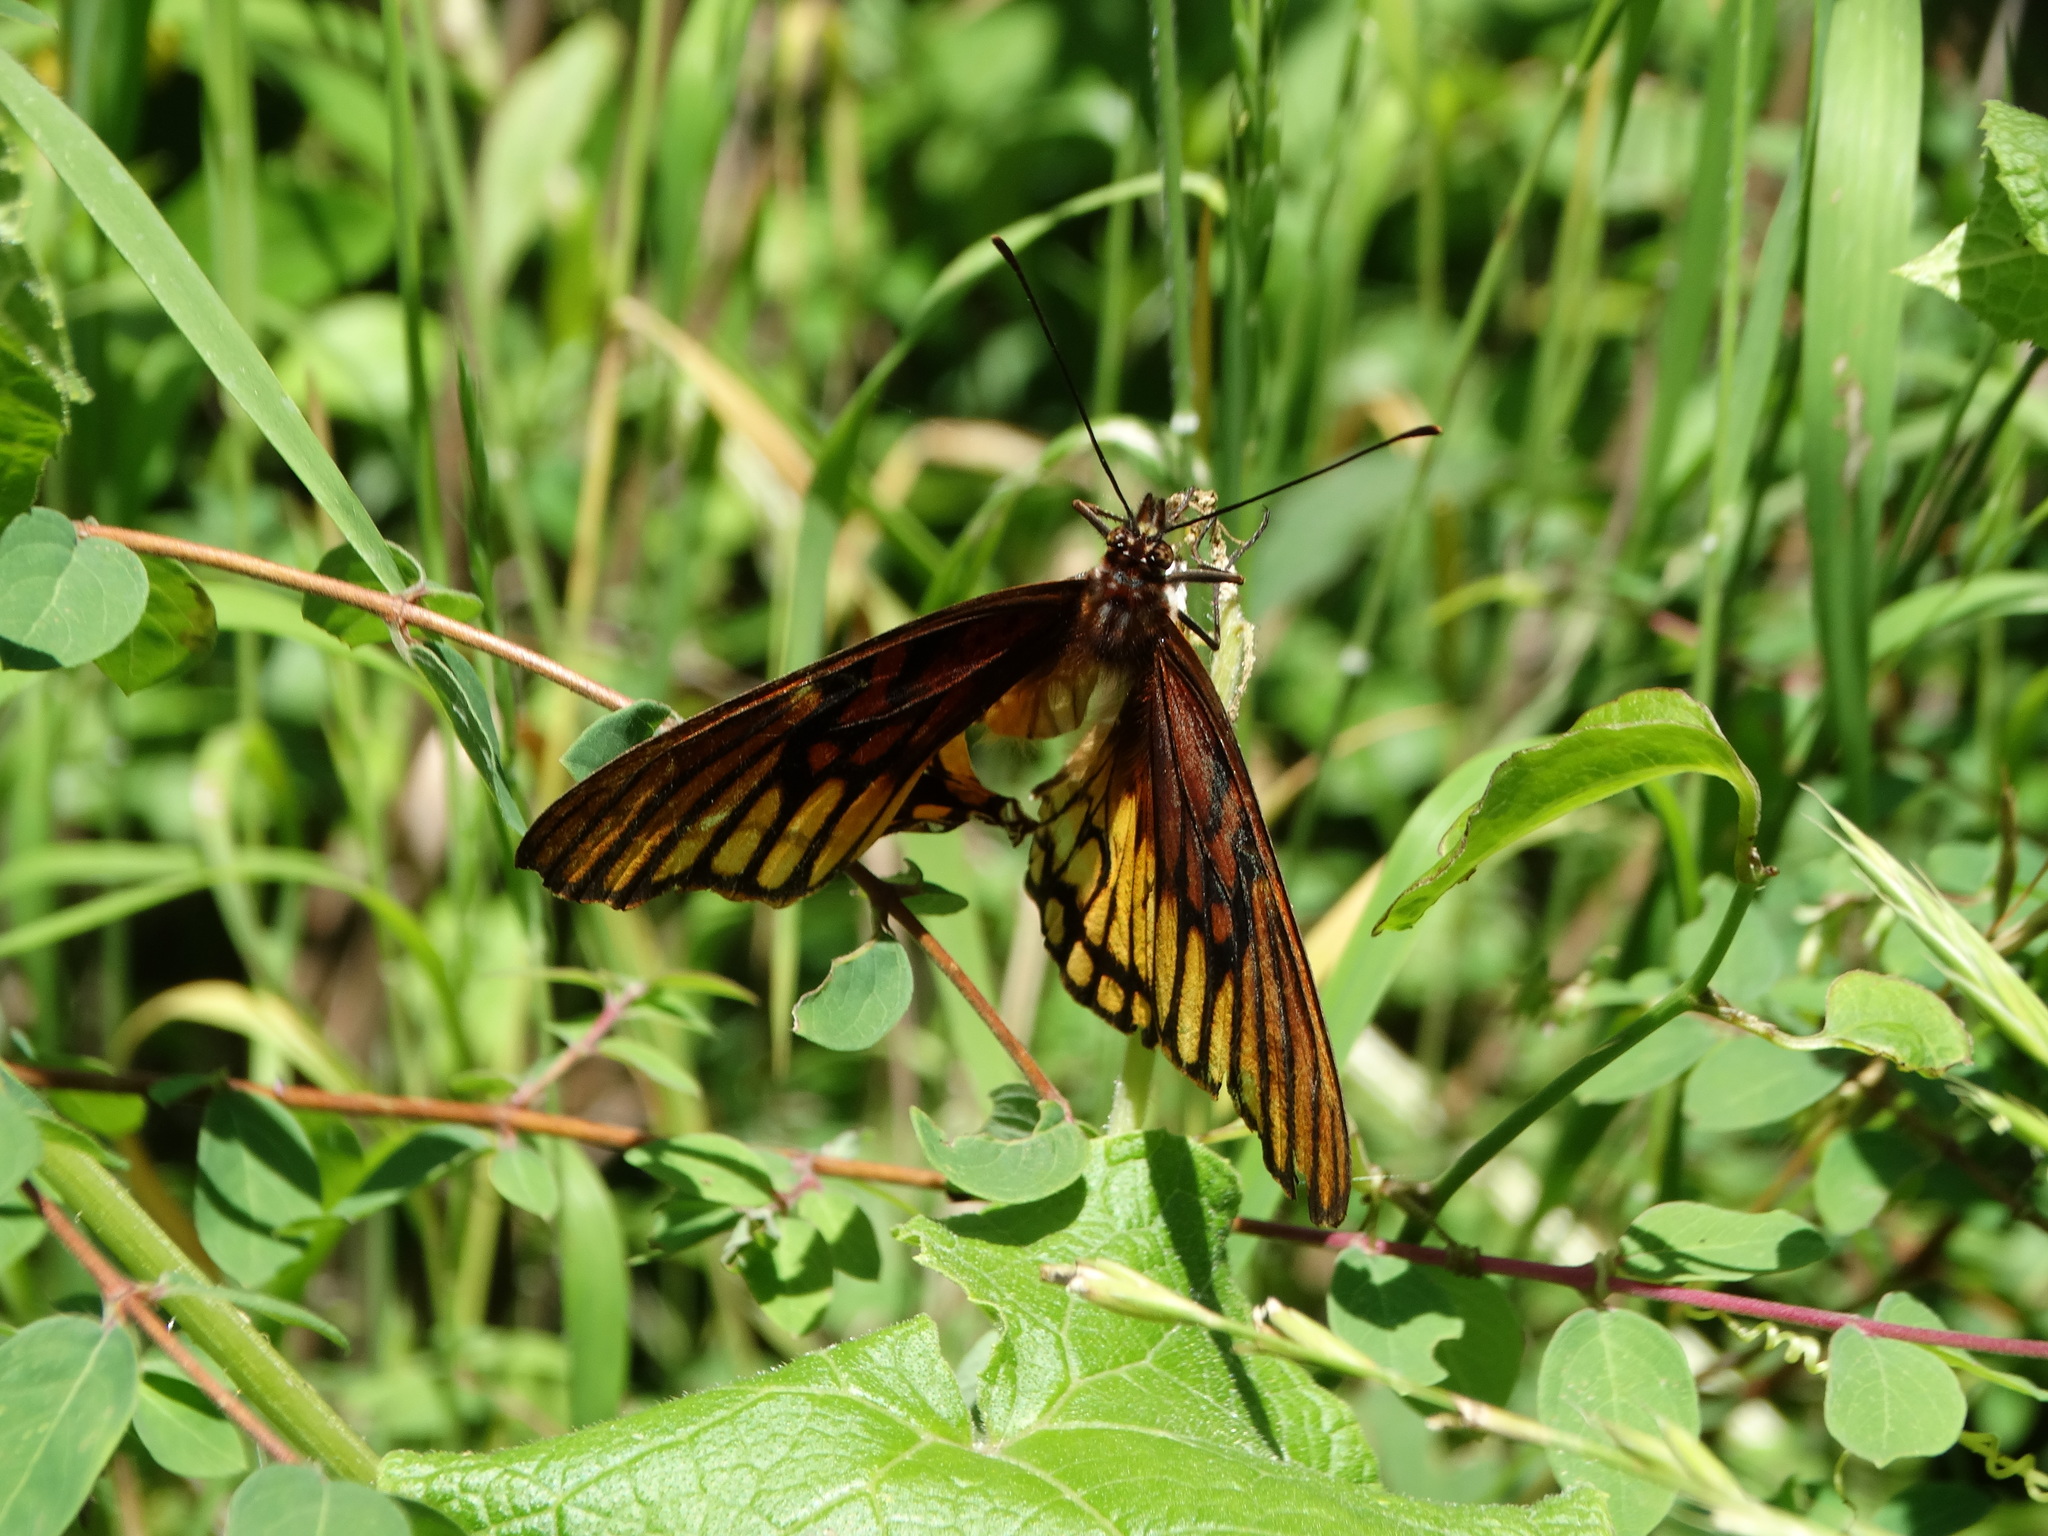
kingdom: Animalia
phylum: Arthropoda
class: Insecta
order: Lepidoptera
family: Nymphalidae
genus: Dione
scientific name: Dione moneta
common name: Mexican silverspot
